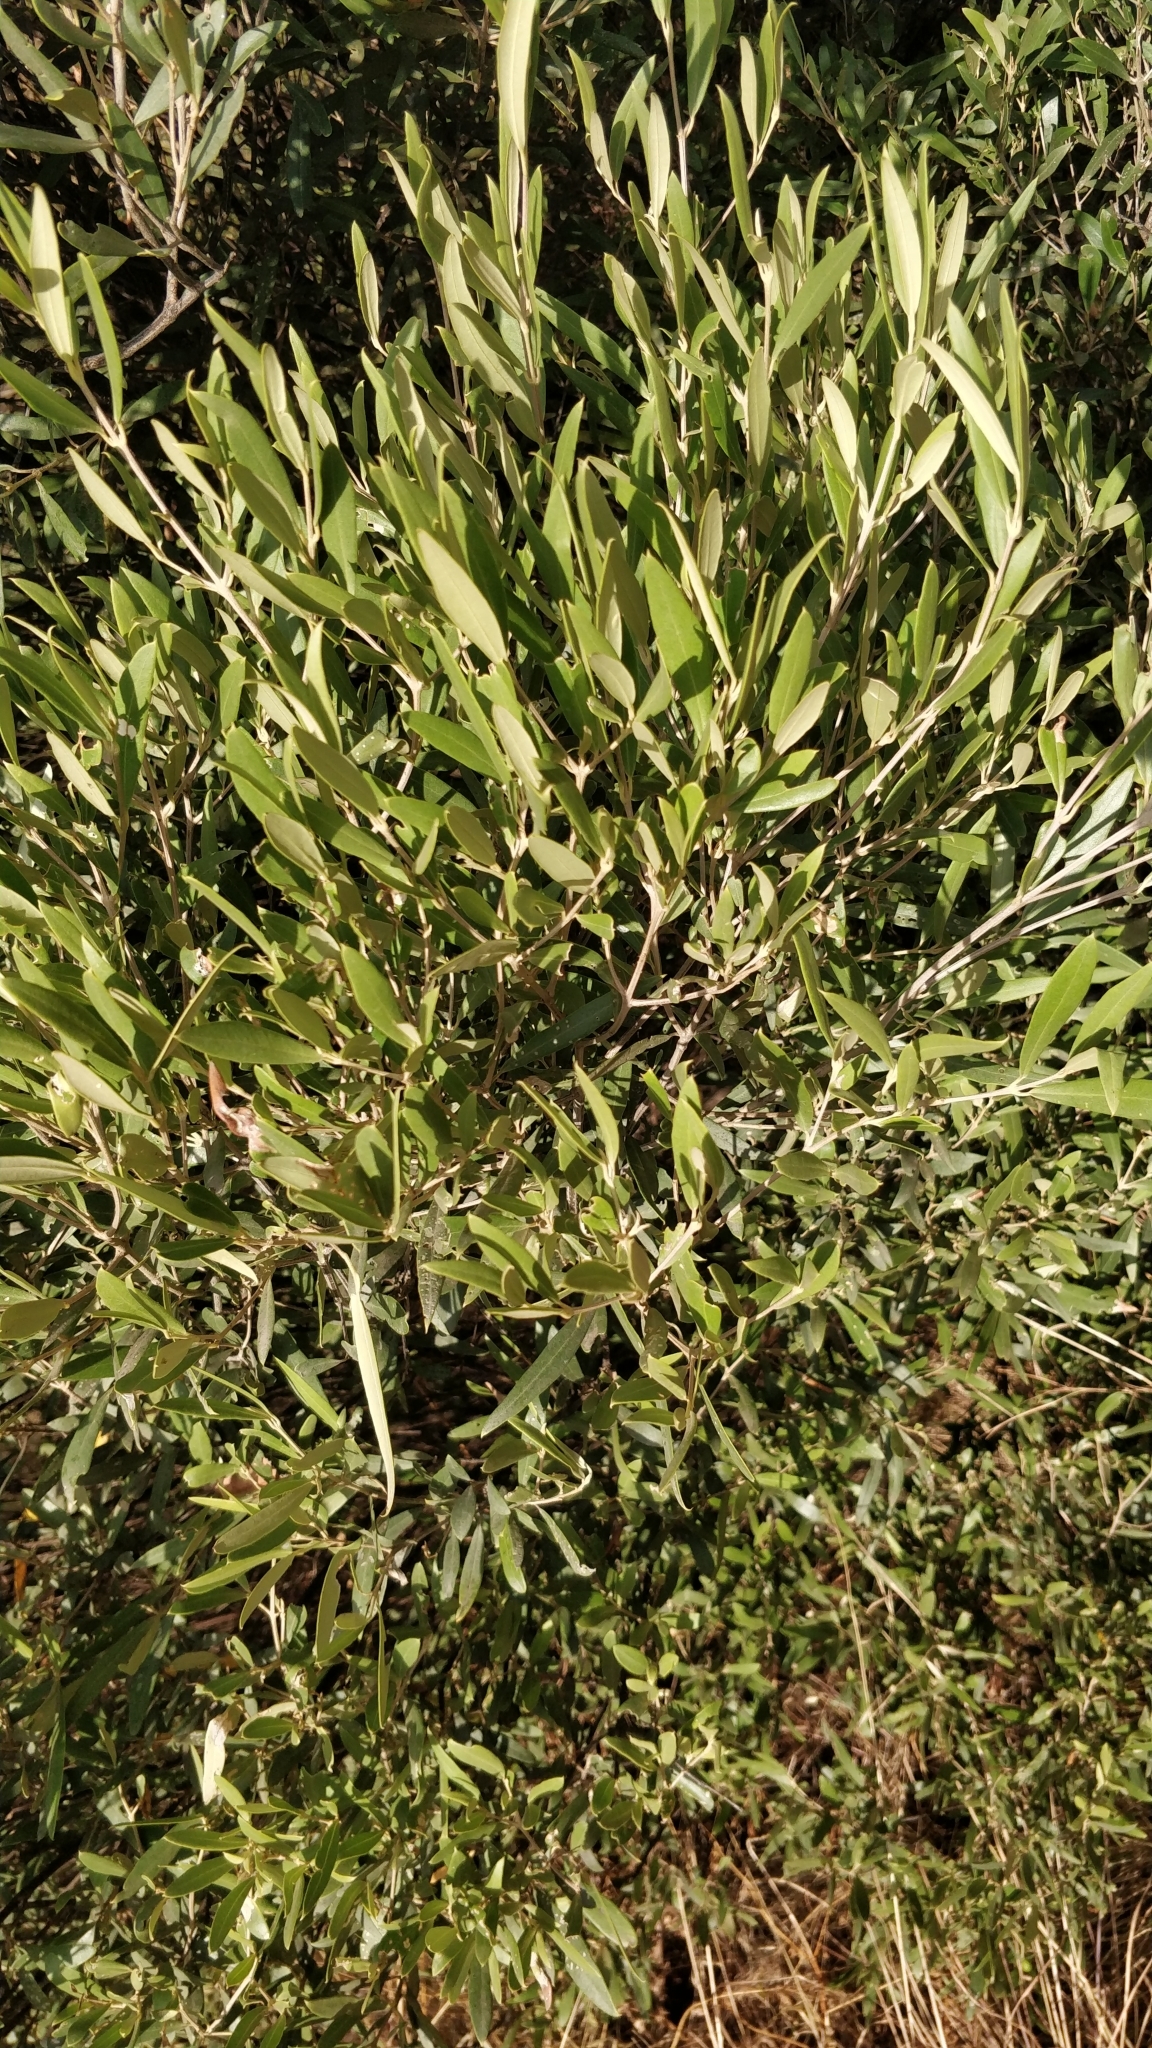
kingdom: Plantae
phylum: Tracheophyta
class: Magnoliopsida
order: Lamiales
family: Oleaceae
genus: Olea
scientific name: Olea europaea
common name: Olive
